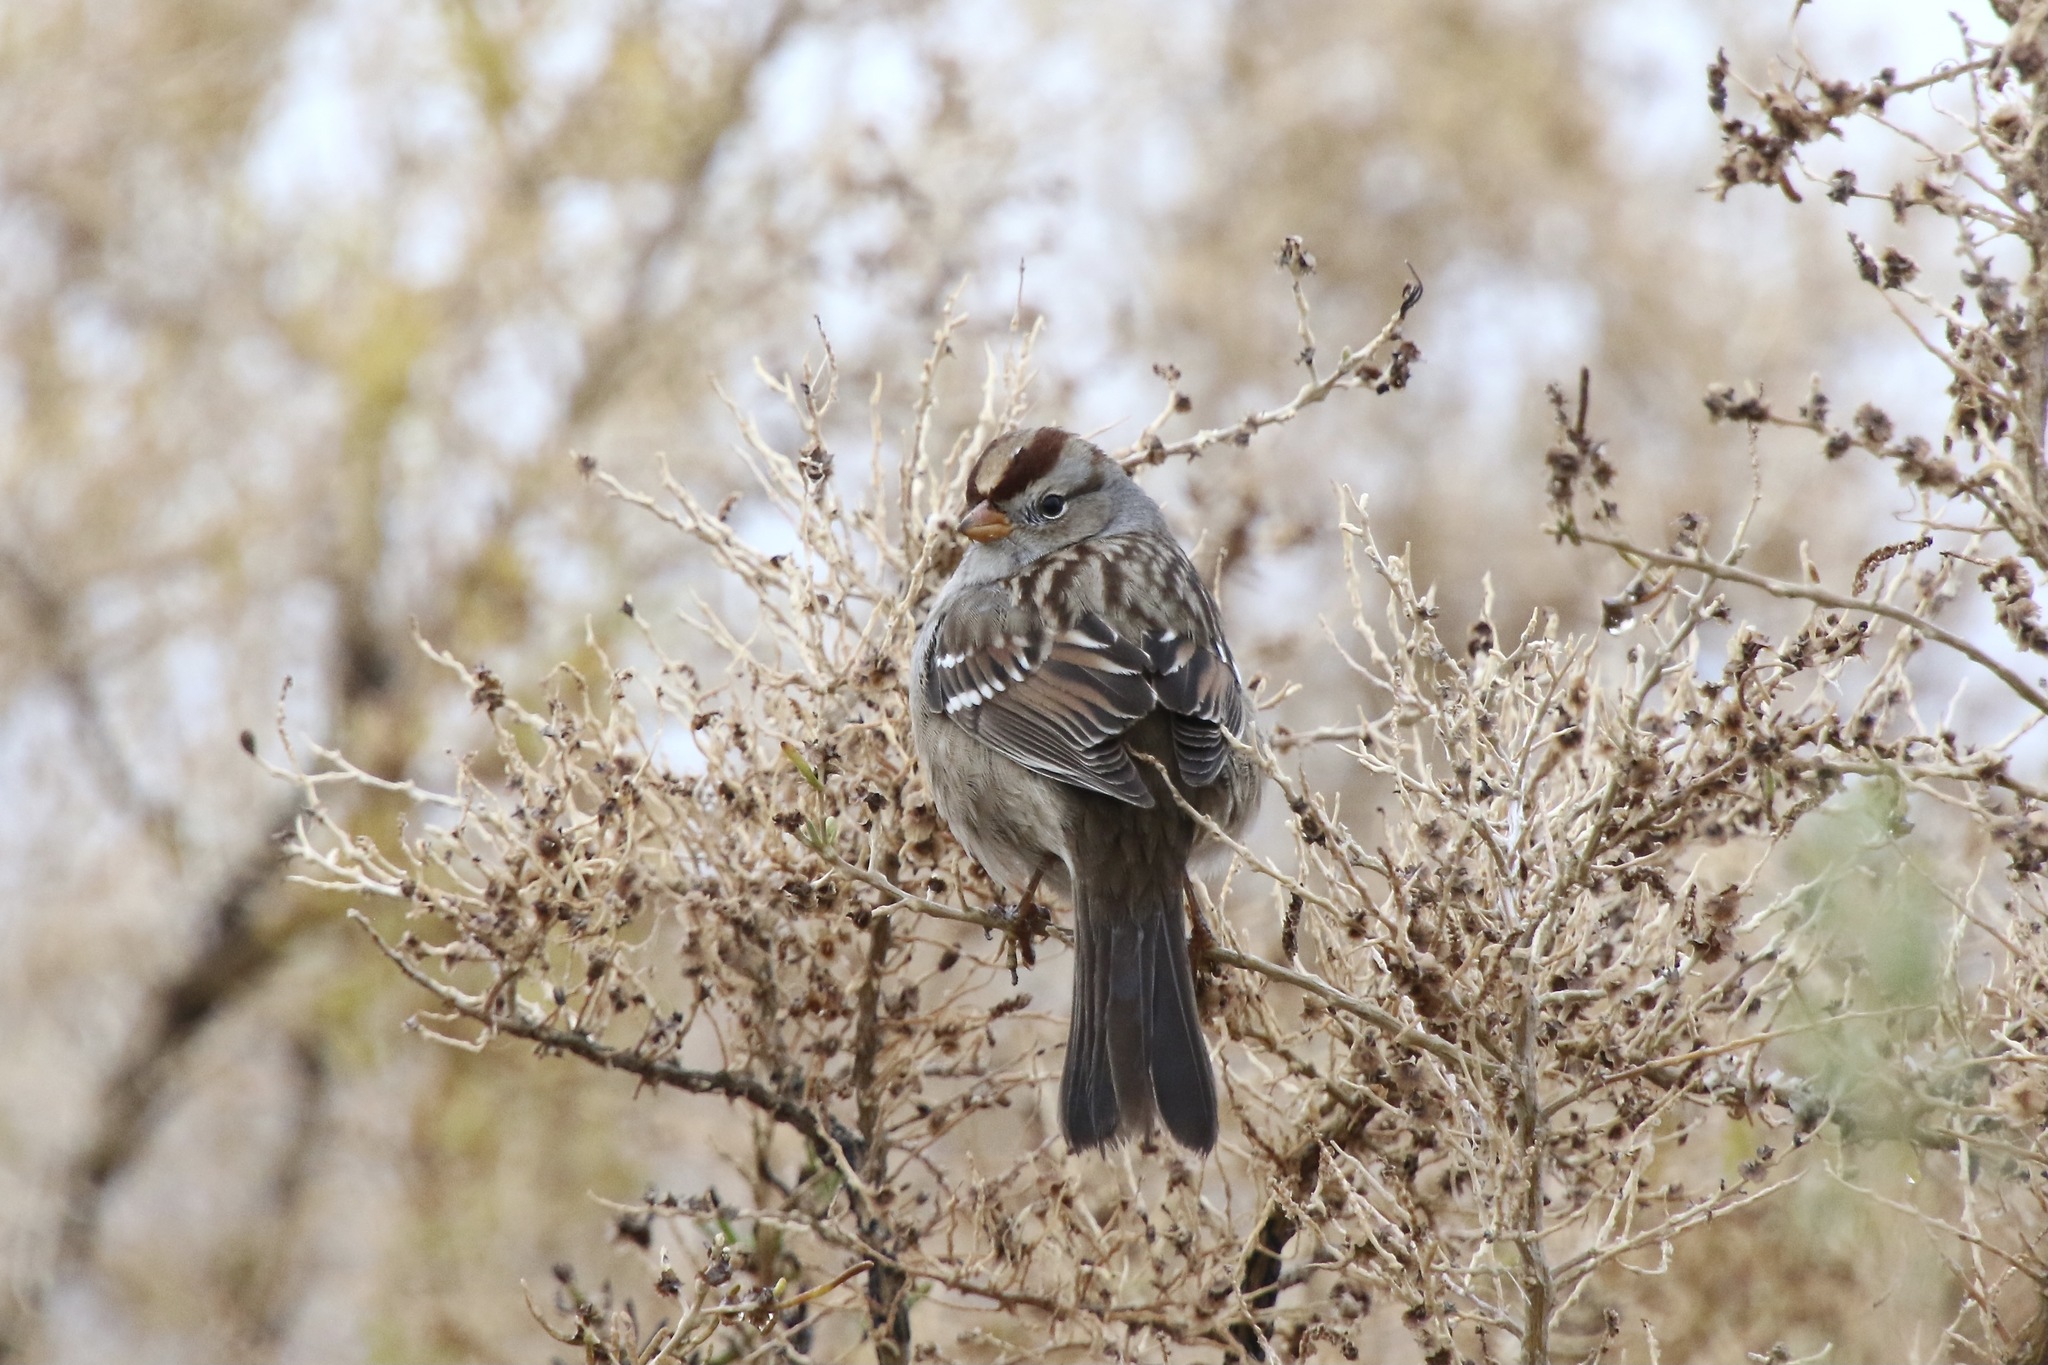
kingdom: Animalia
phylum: Chordata
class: Aves
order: Passeriformes
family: Passerellidae
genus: Zonotrichia
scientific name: Zonotrichia leucophrys
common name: White-crowned sparrow
